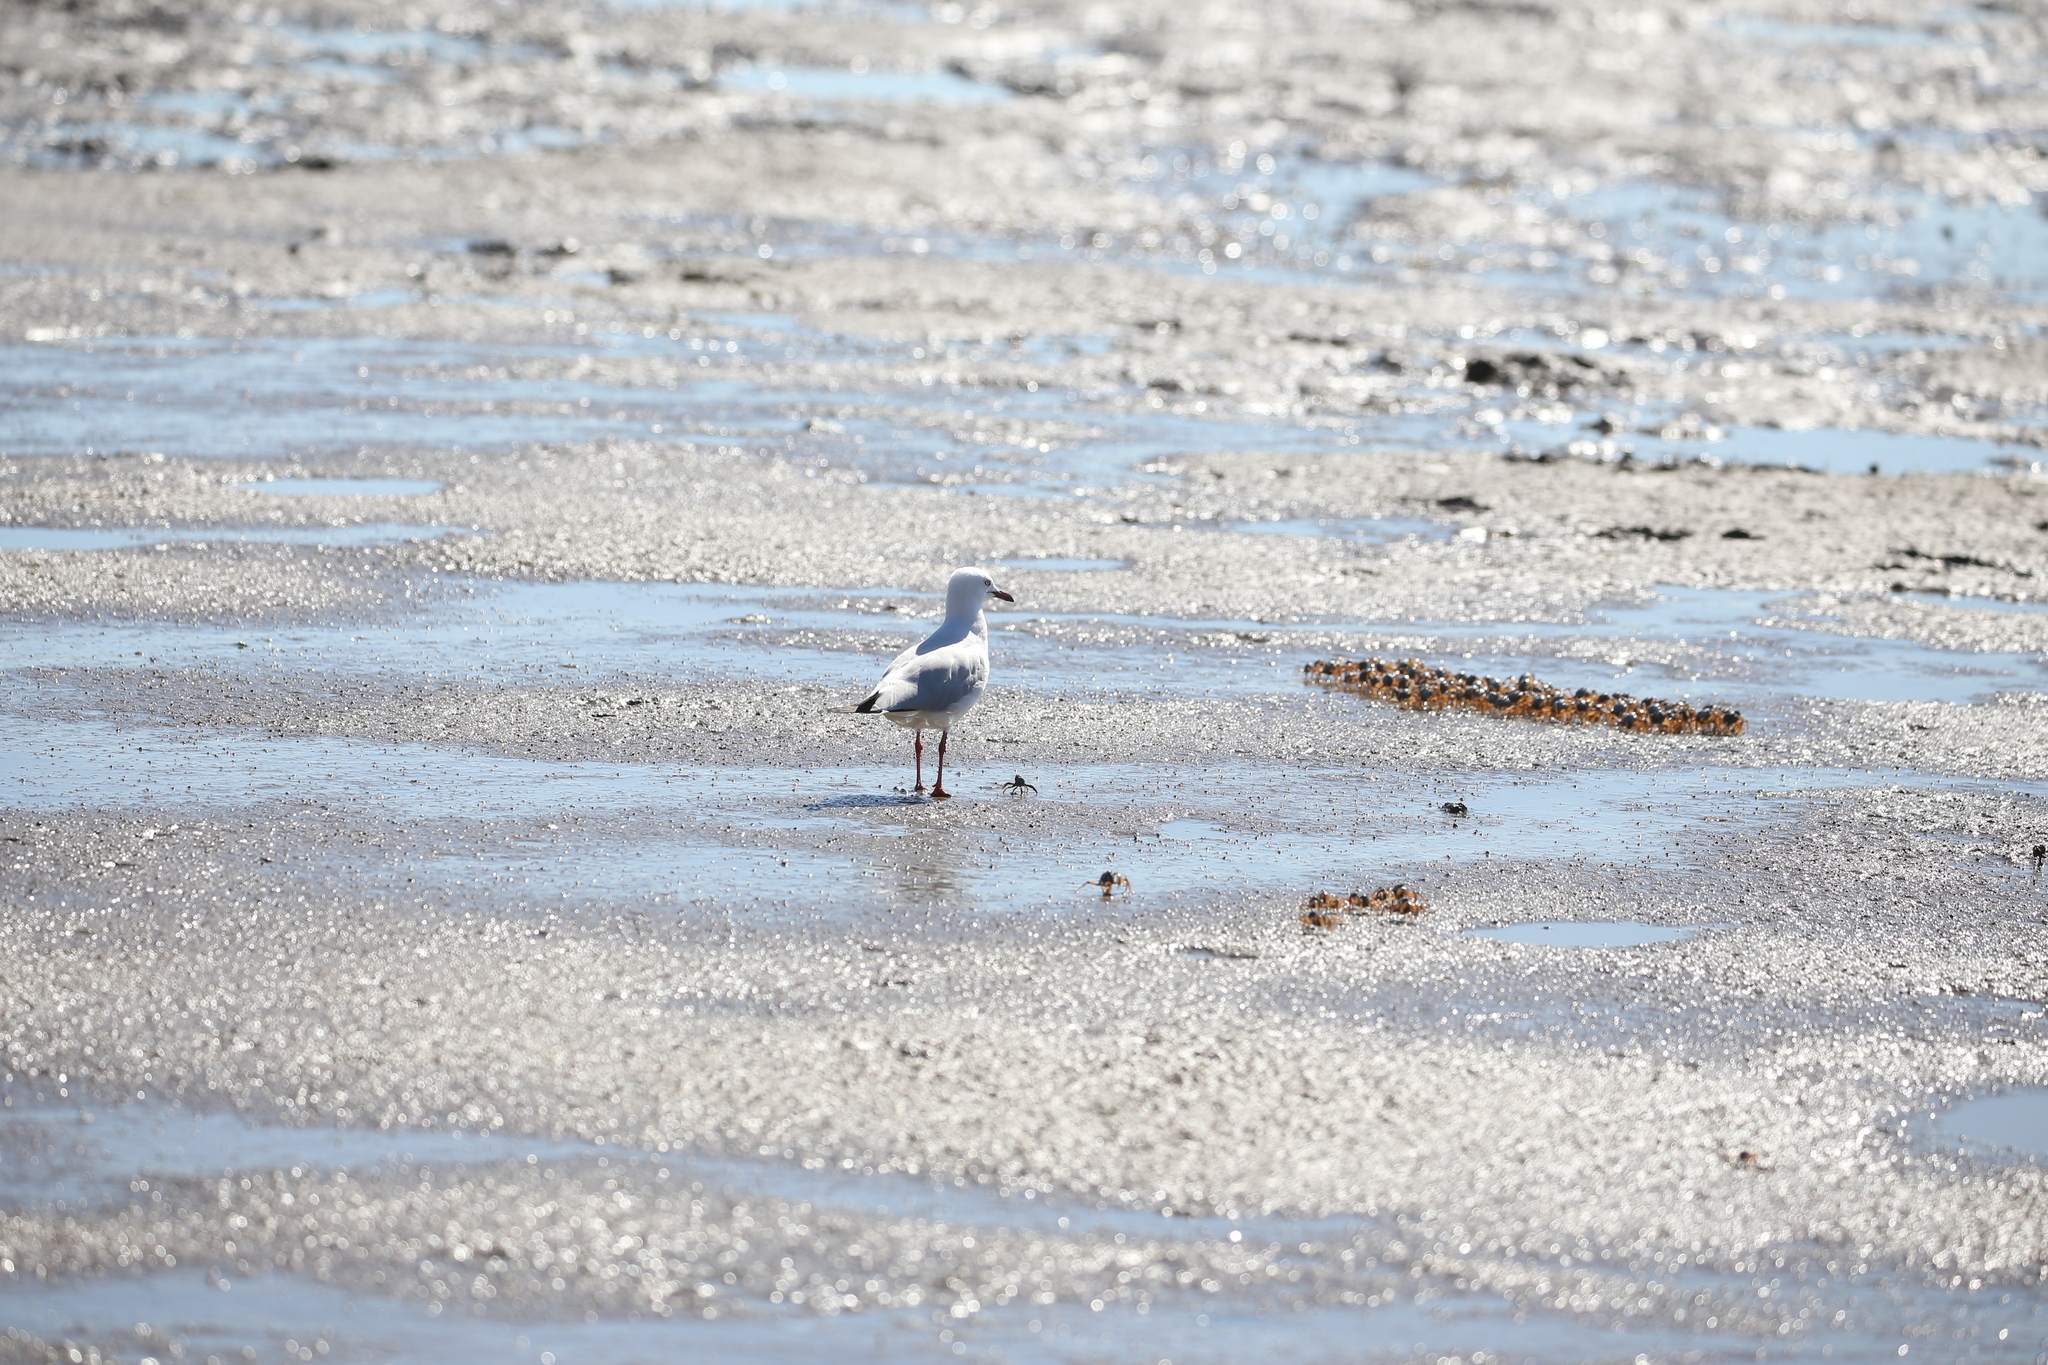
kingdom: Animalia
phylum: Chordata
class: Aves
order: Charadriiformes
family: Laridae
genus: Chroicocephalus
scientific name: Chroicocephalus novaehollandiae
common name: Silver gull
